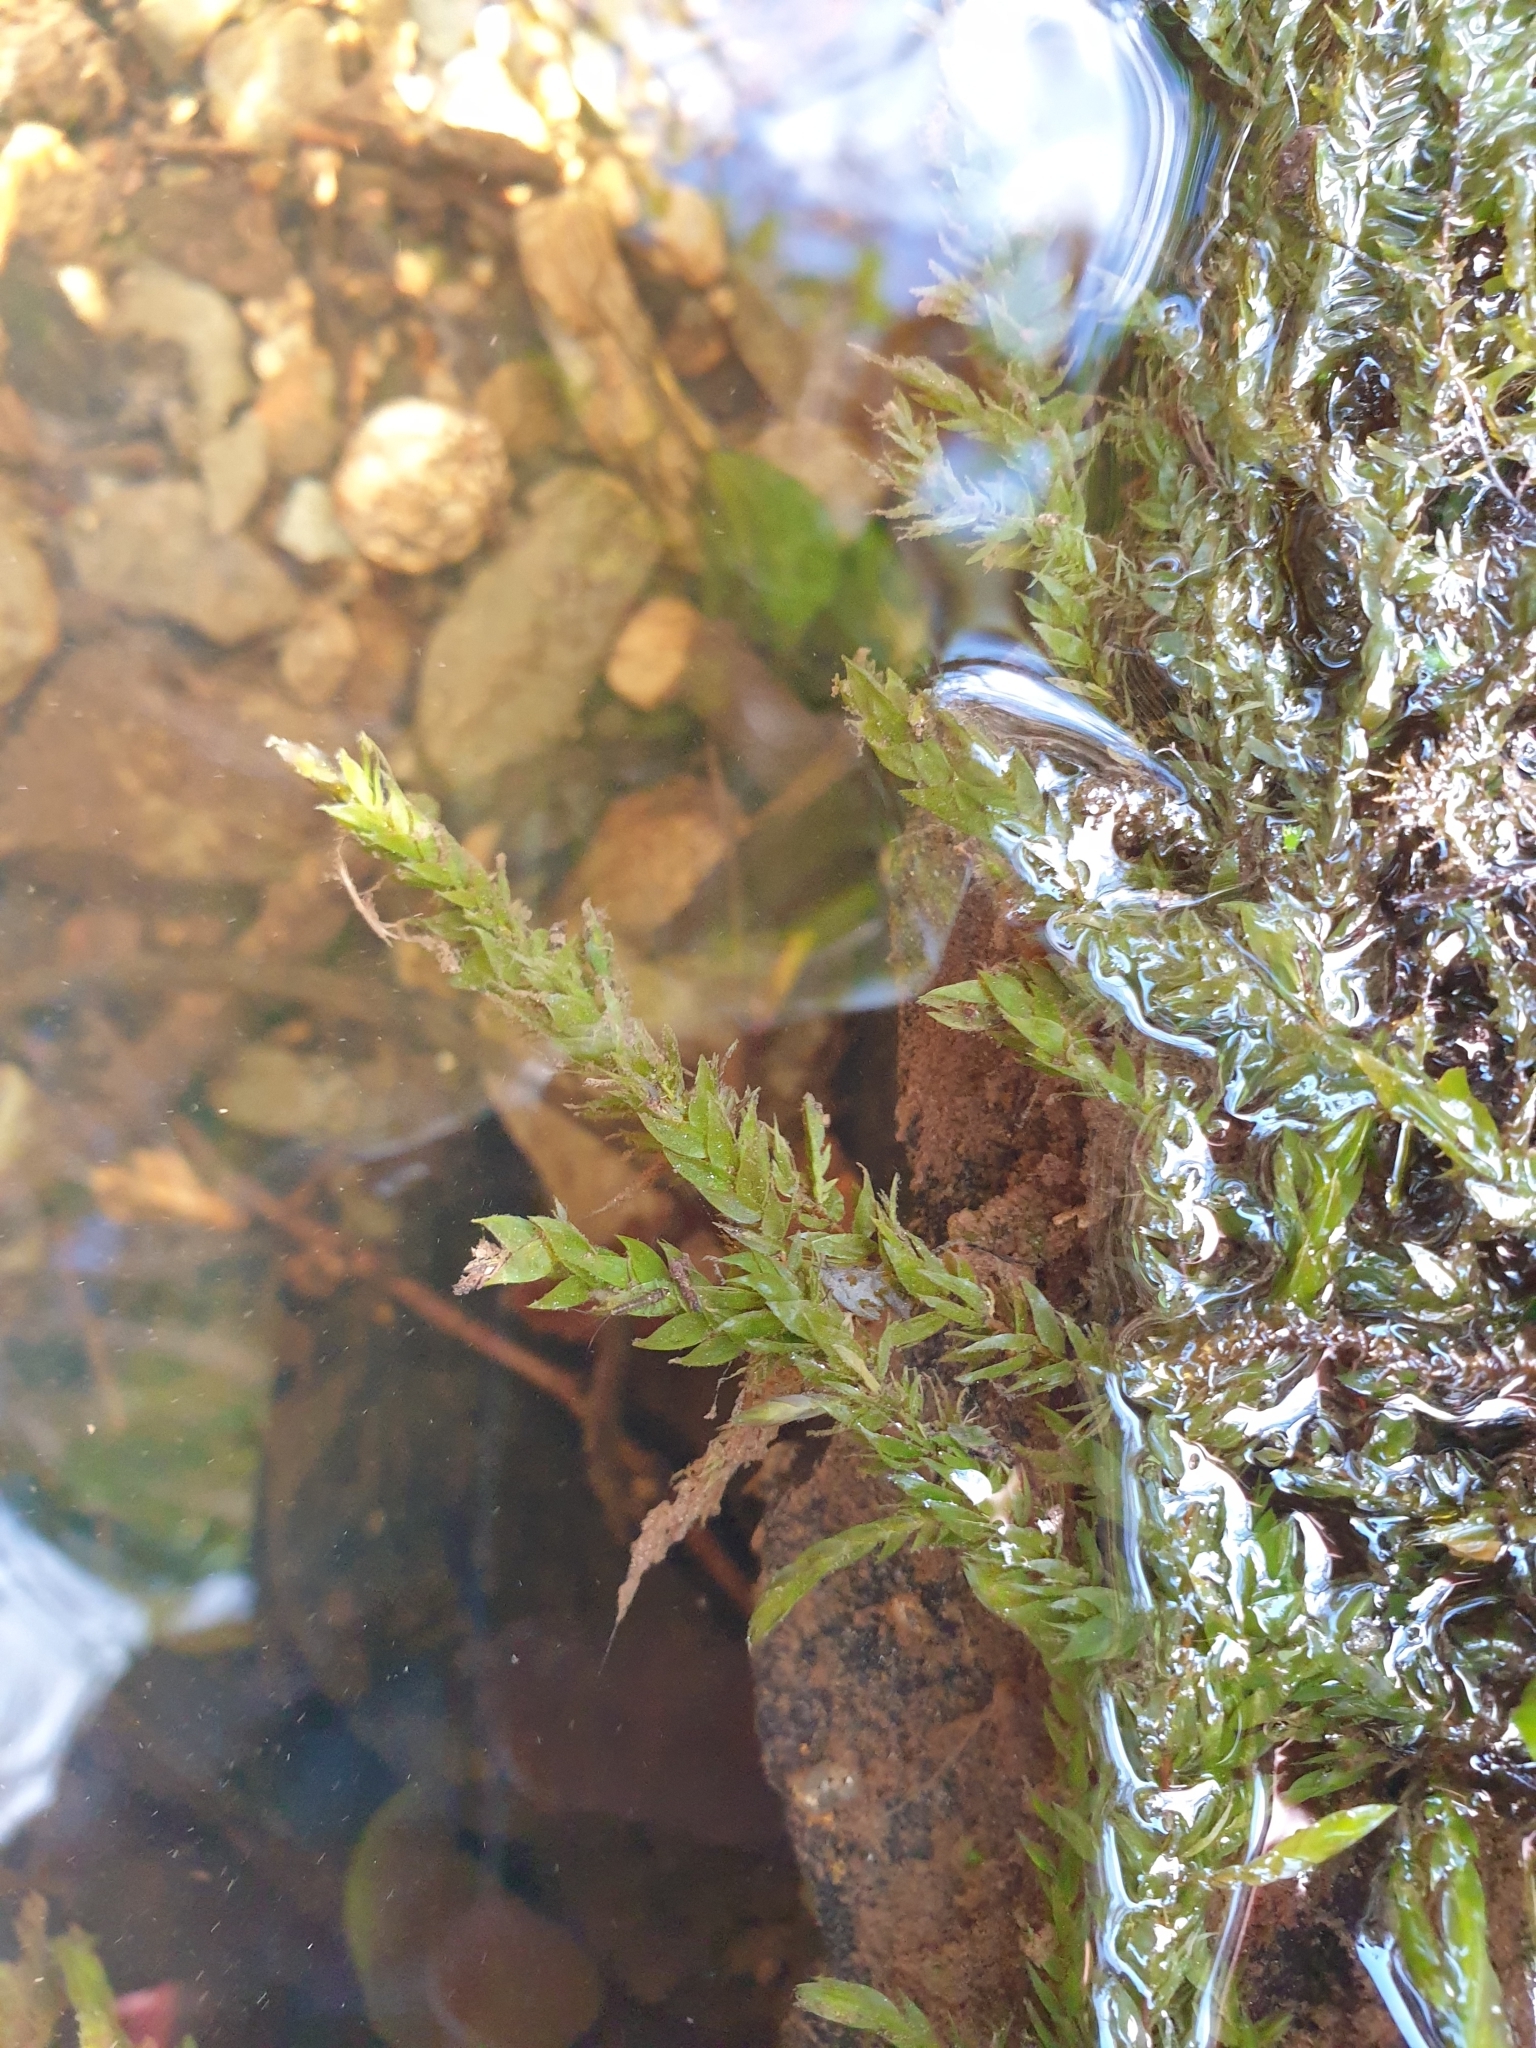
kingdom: Plantae
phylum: Bryophyta
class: Bryopsida
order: Hypnales
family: Fontinalaceae
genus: Fontinalis
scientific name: Fontinalis antipyretica
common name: Greater water-moss
